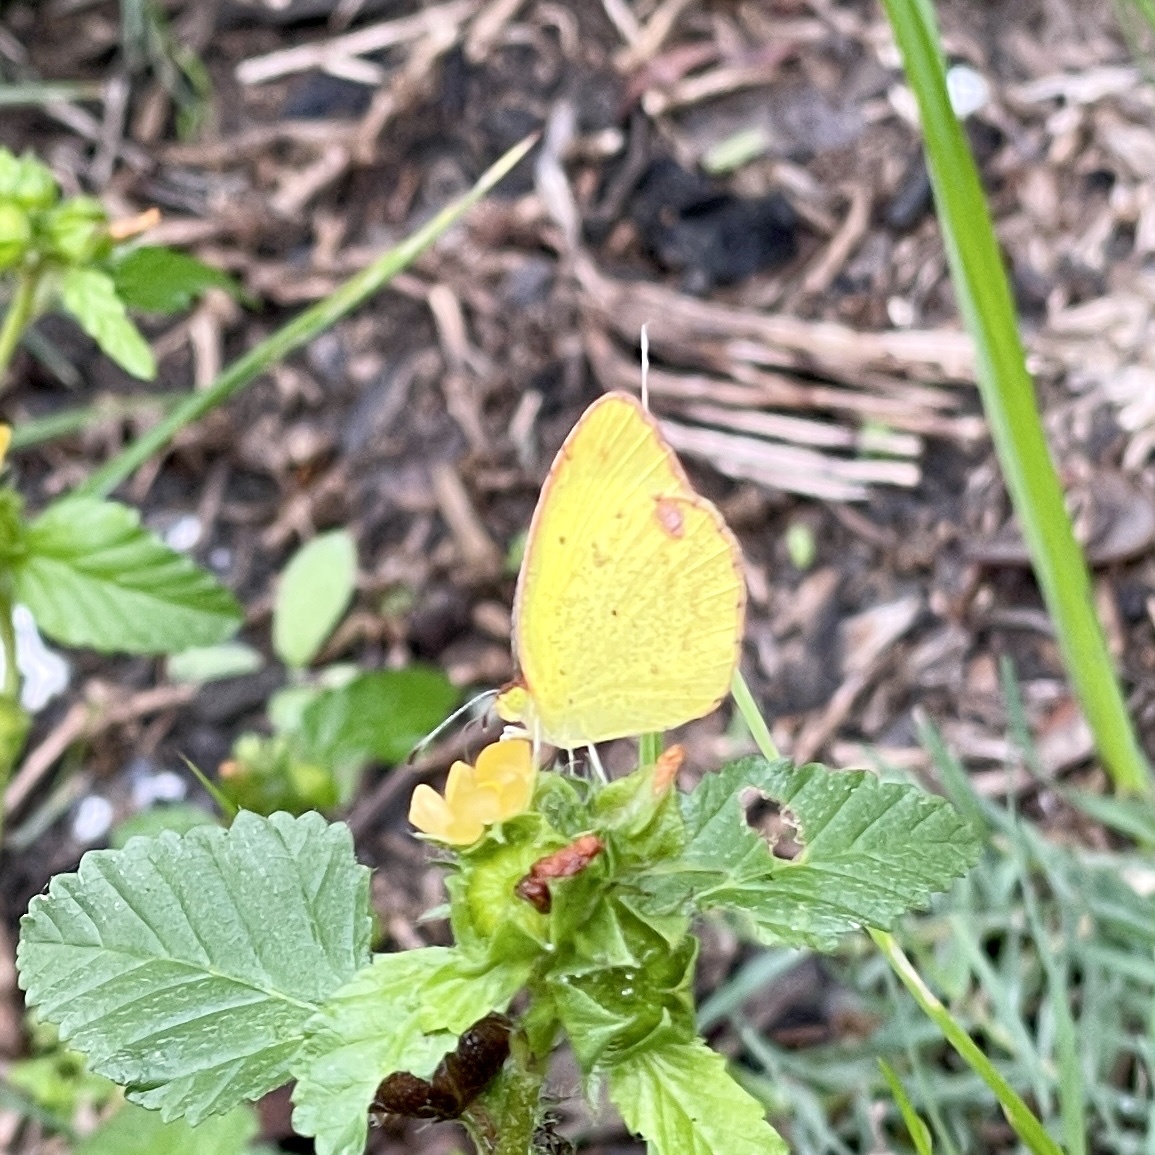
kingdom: Animalia
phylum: Arthropoda
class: Insecta
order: Lepidoptera
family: Pieridae
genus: Pyrisitia
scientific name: Pyrisitia lisa
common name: Little yellow
